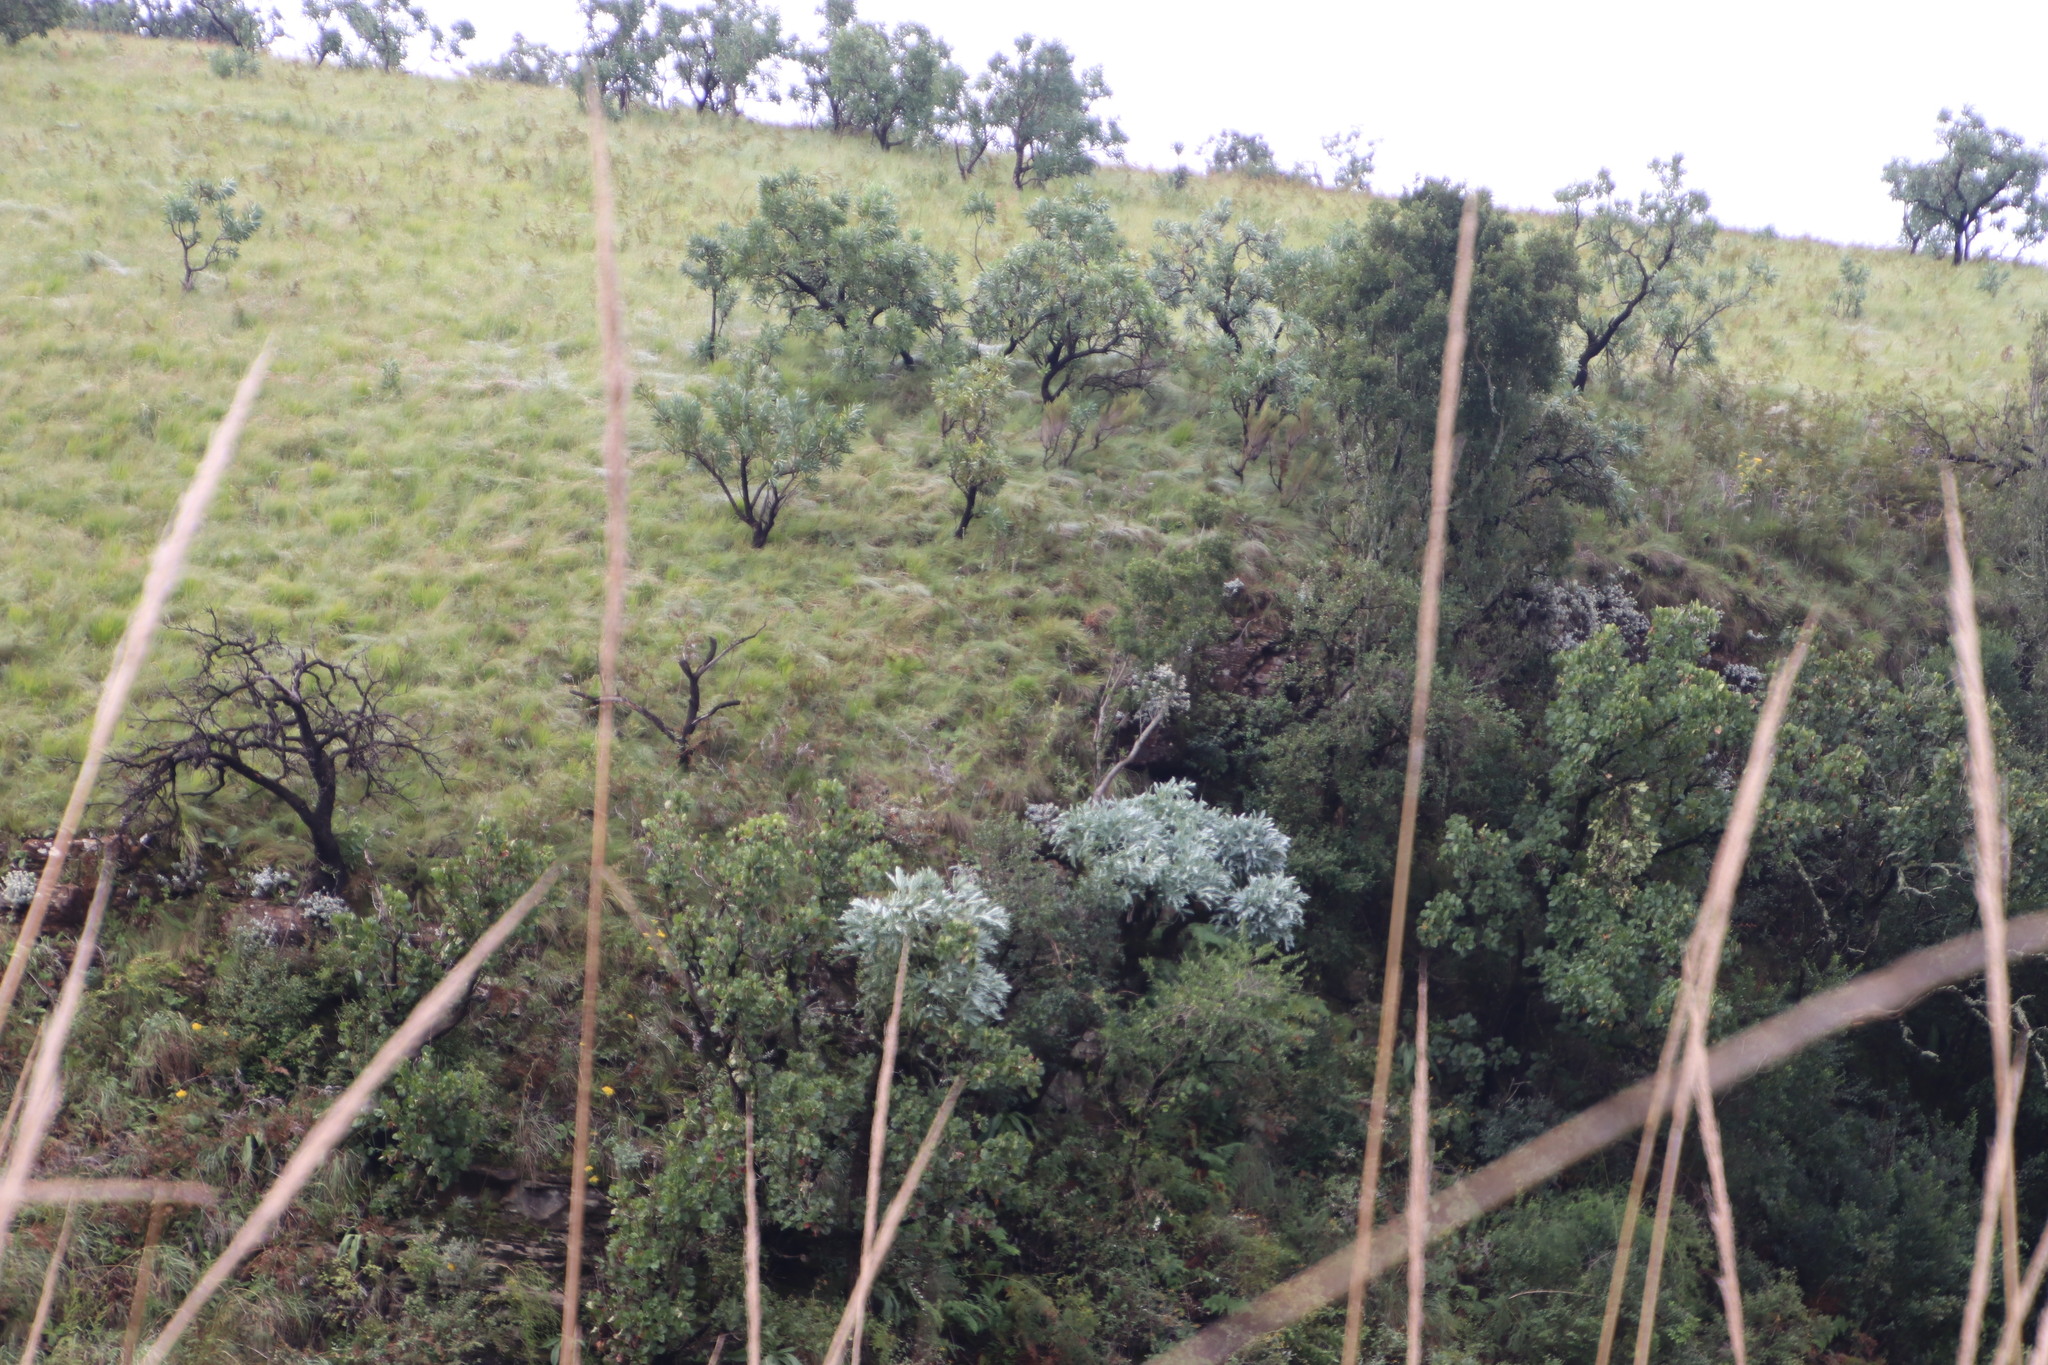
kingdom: Plantae
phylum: Tracheophyta
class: Magnoliopsida
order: Proteales
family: Proteaceae
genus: Protea
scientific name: Protea caffra
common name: Common sugarbush
